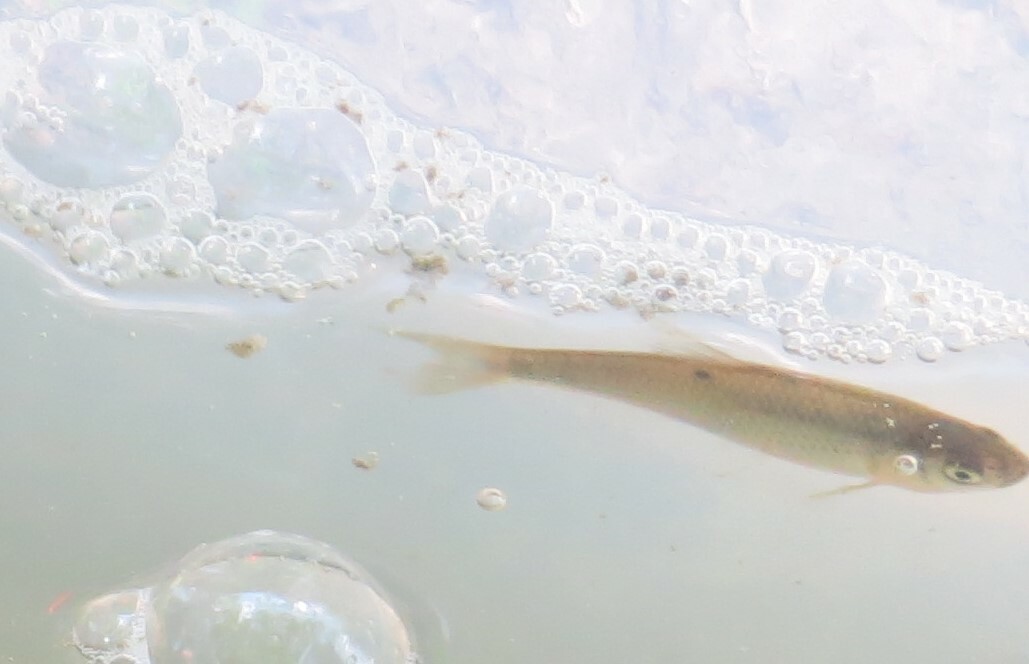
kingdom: Animalia
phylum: Chordata
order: Cypriniformes
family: Cyprinidae
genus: Notemigonus
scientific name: Notemigonus crysoleucas
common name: Golden shiner
